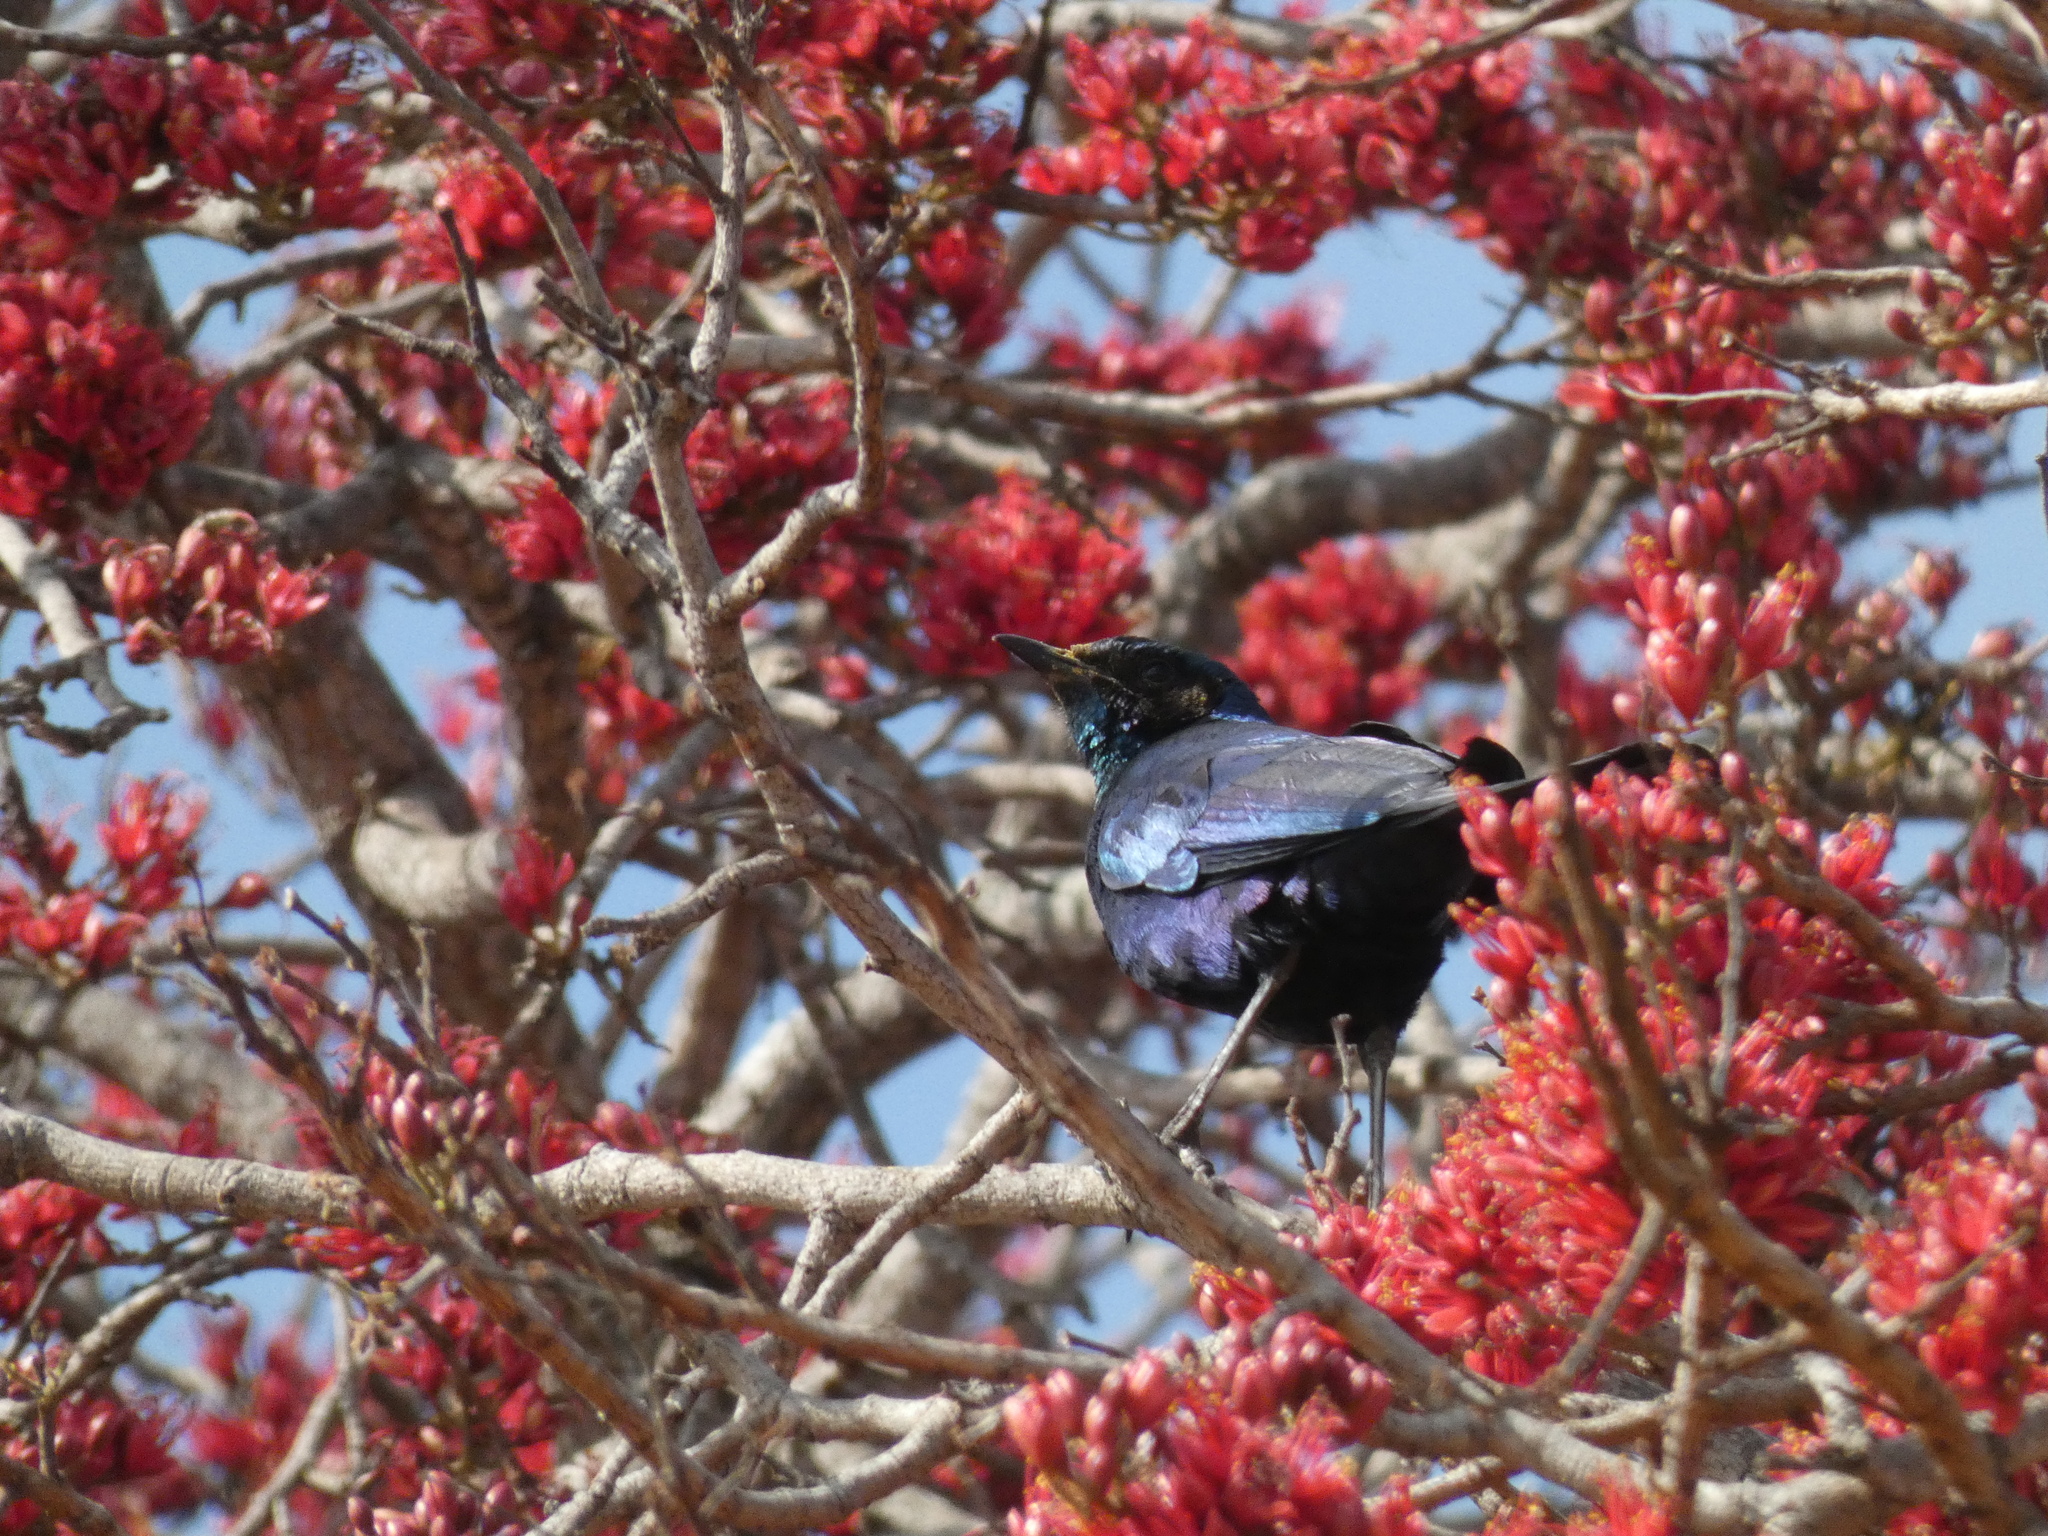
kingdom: Animalia
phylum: Chordata
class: Aves
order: Passeriformes
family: Sturnidae
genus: Lamprotornis
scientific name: Lamprotornis australis
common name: Burchell's starling
